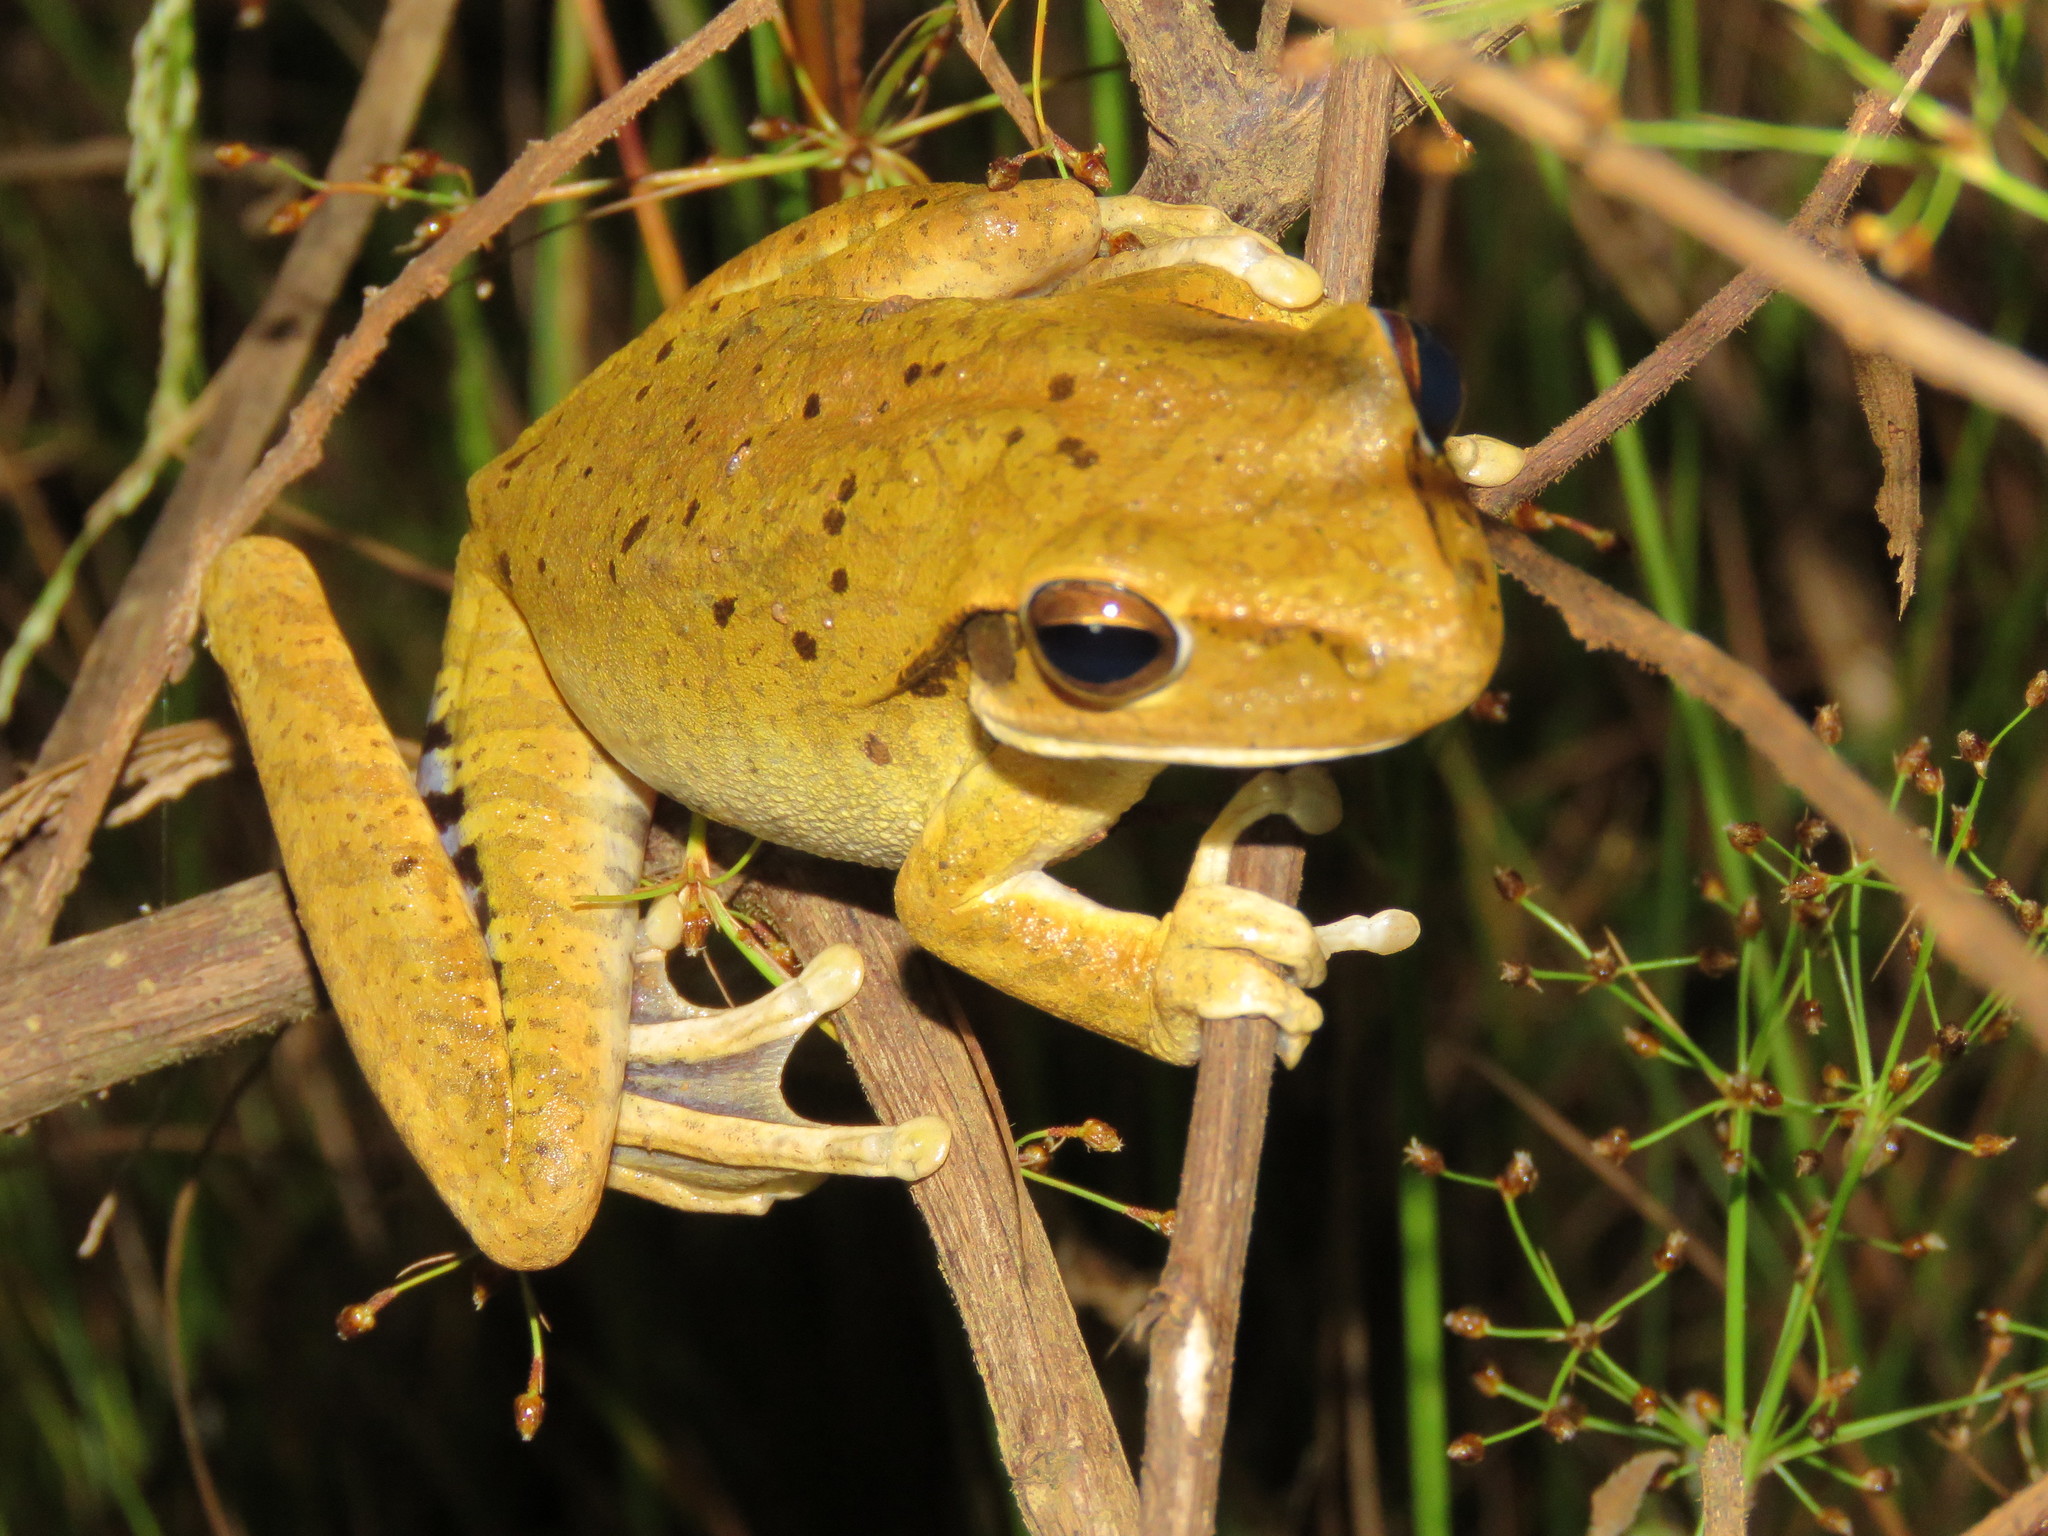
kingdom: Animalia
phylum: Chordata
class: Amphibia
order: Anura
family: Hylidae
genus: Boana
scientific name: Boana raniceps
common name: Chaco treefrog
